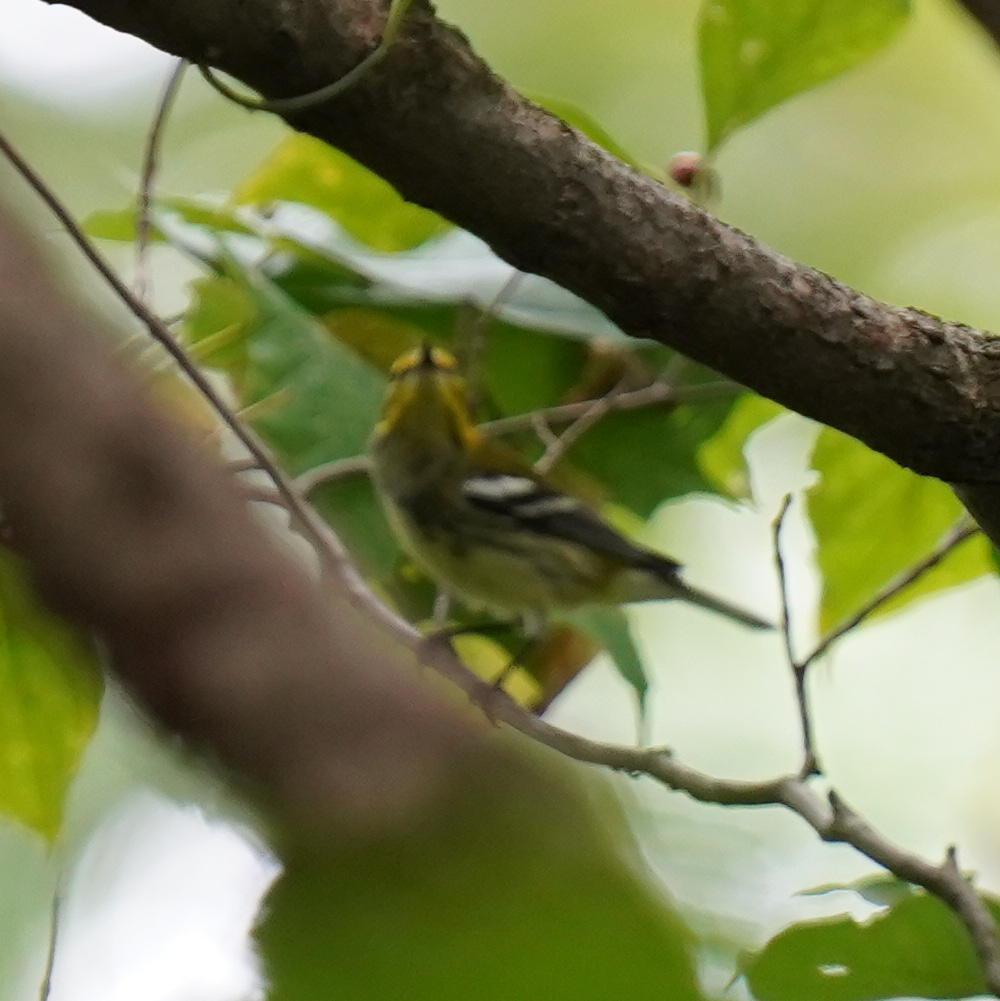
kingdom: Animalia
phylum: Chordata
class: Aves
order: Passeriformes
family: Parulidae
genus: Setophaga
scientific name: Setophaga virens
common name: Black-throated green warbler
